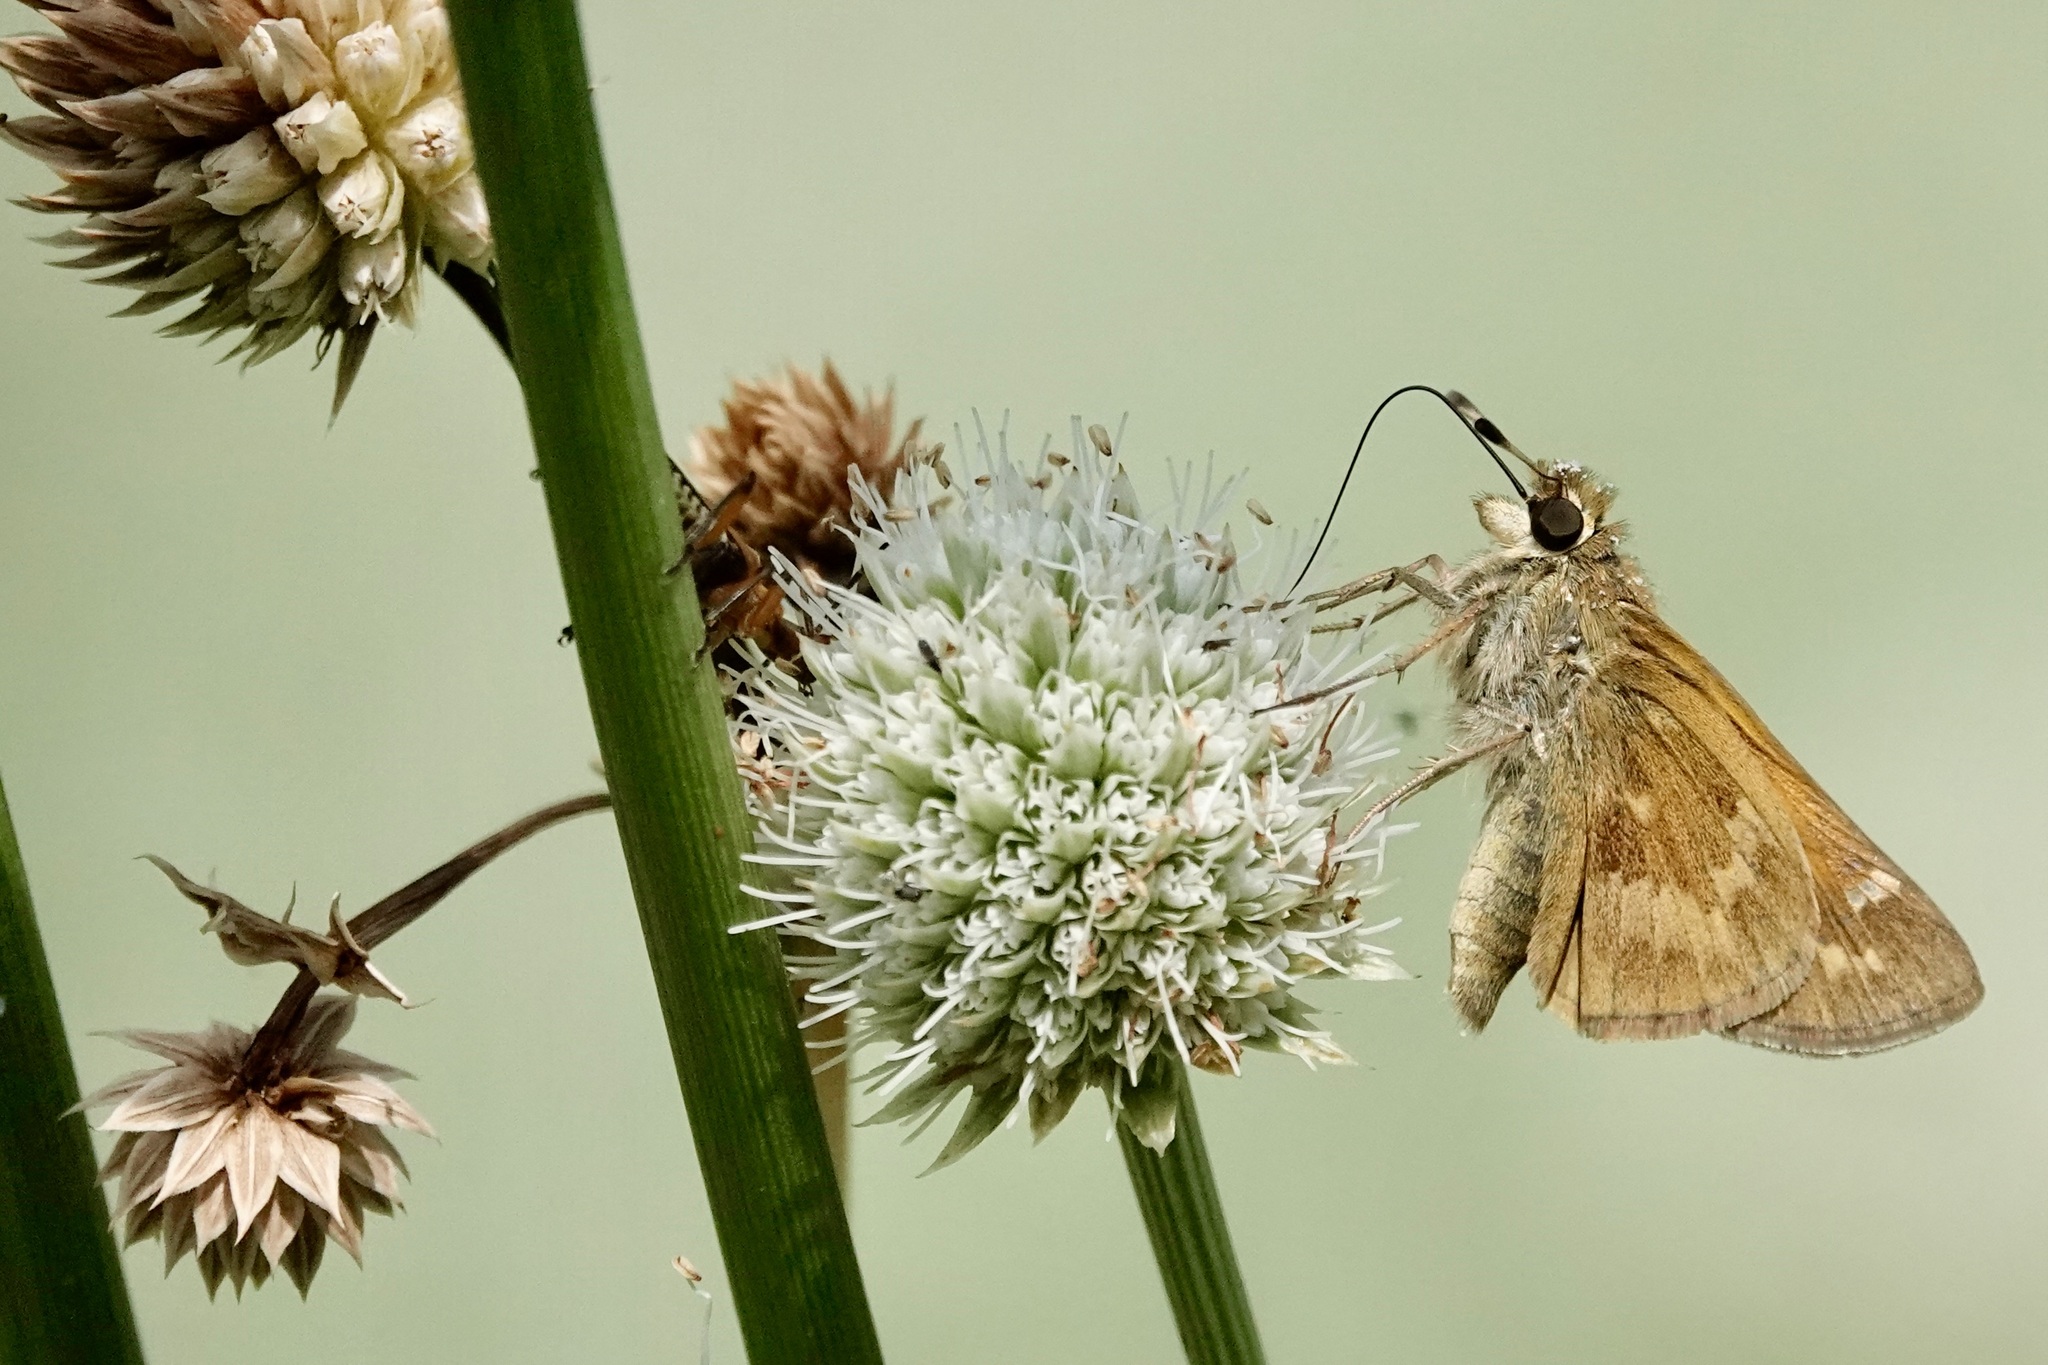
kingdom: Animalia
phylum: Arthropoda
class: Insecta
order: Lepidoptera
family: Hesperiidae
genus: Atalopedes
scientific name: Atalopedes
